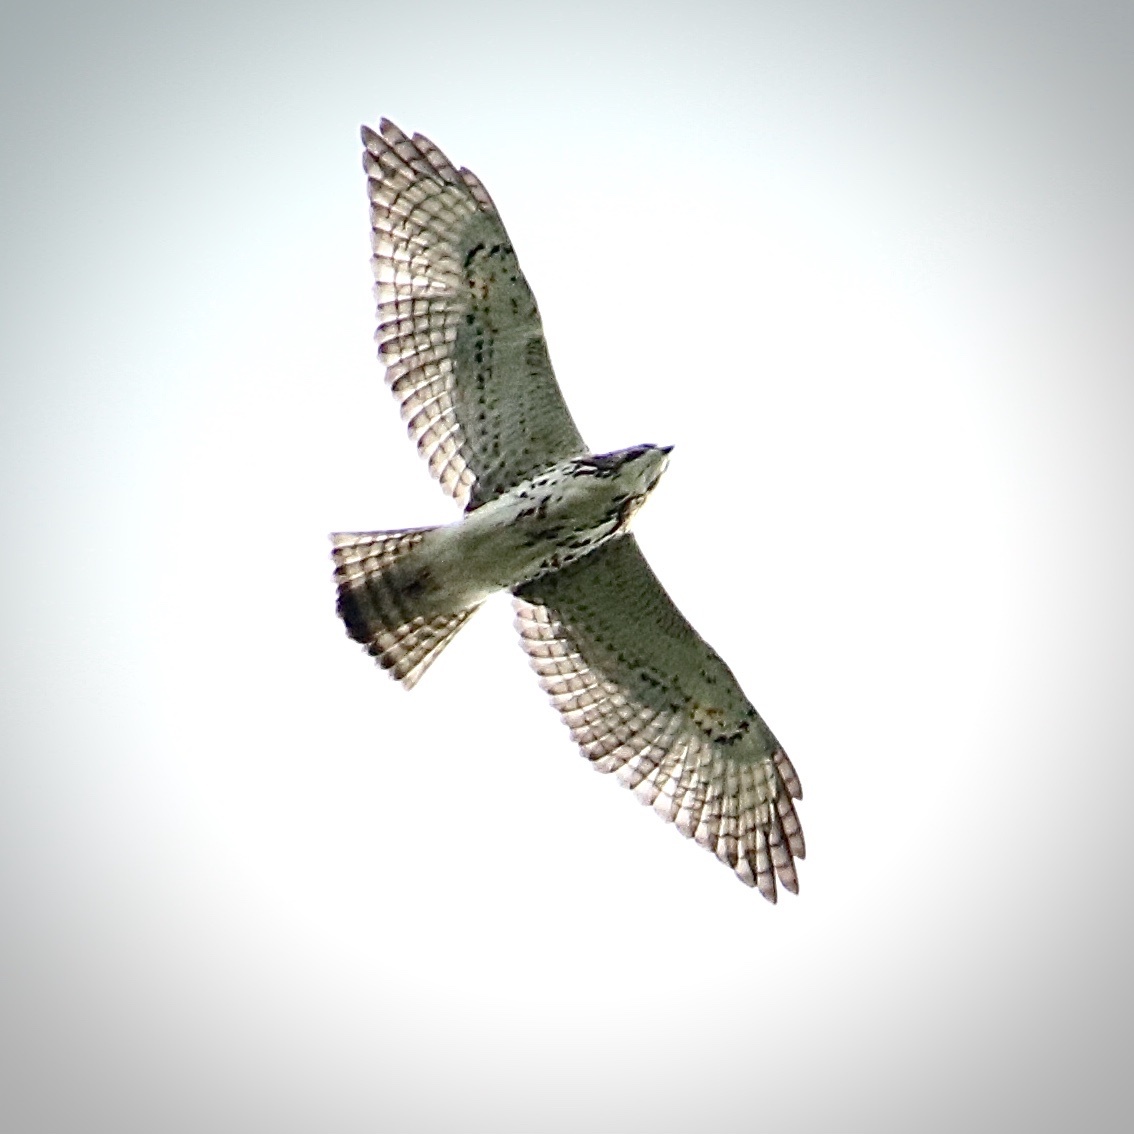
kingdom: Animalia
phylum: Chordata
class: Aves
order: Accipitriformes
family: Accipitridae
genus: Buteo
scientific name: Buteo platypterus
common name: Broad-winged hawk
